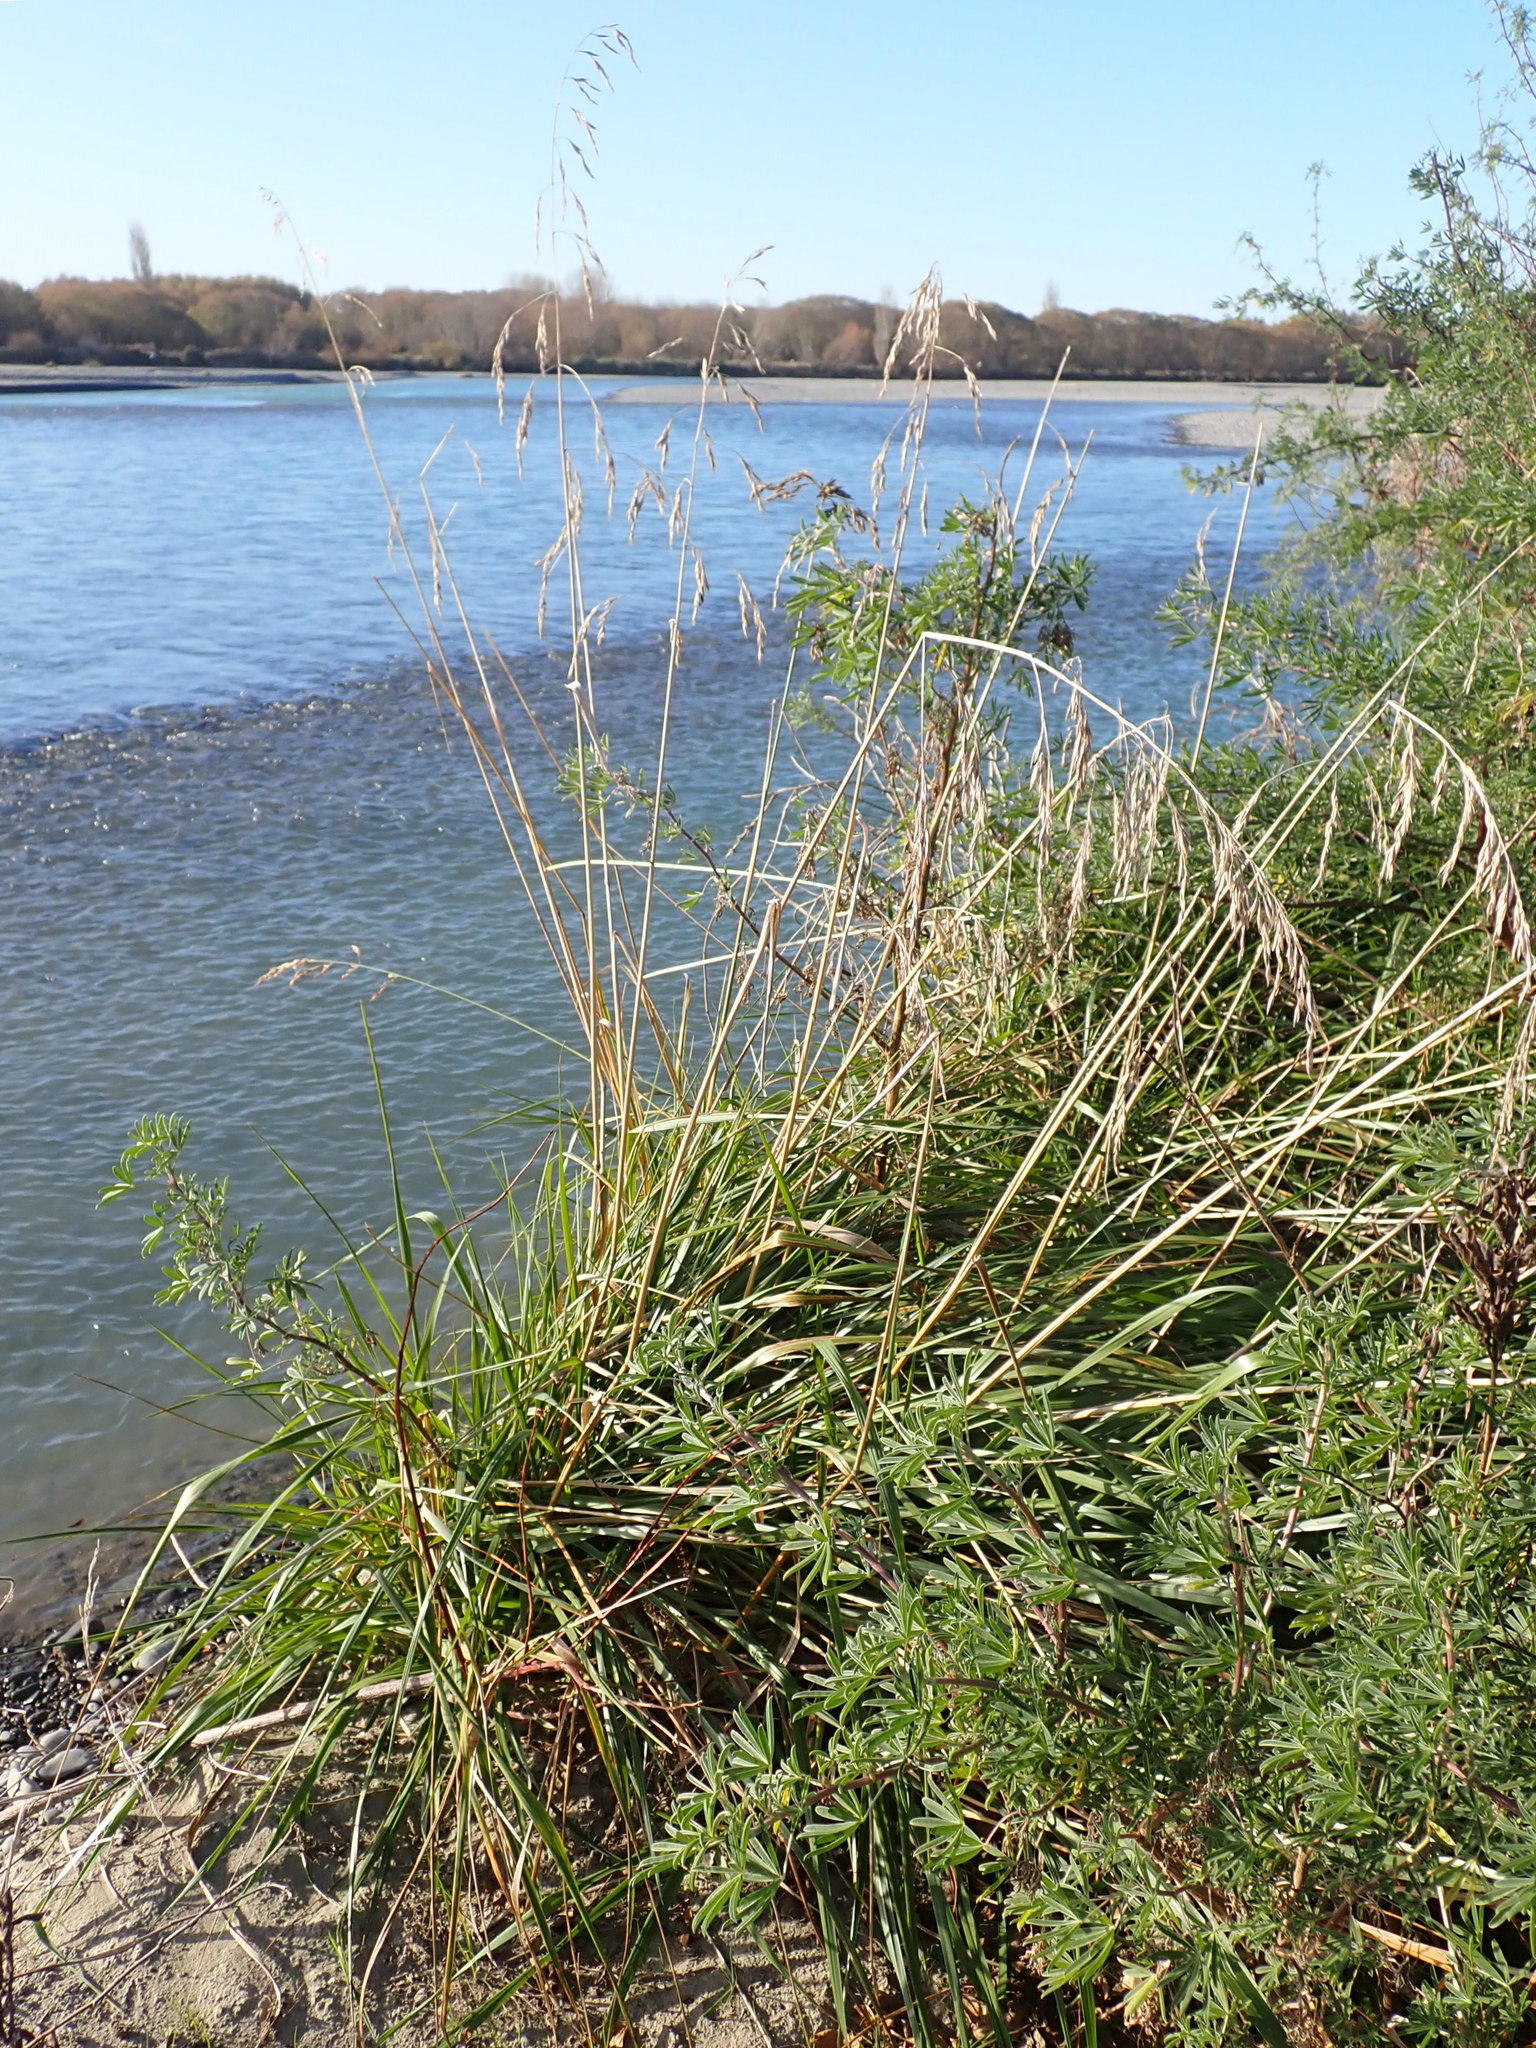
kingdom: Plantae
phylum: Tracheophyta
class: Liliopsida
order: Poales
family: Poaceae
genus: Lolium
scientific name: Lolium arundinaceum
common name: Reed fescue
